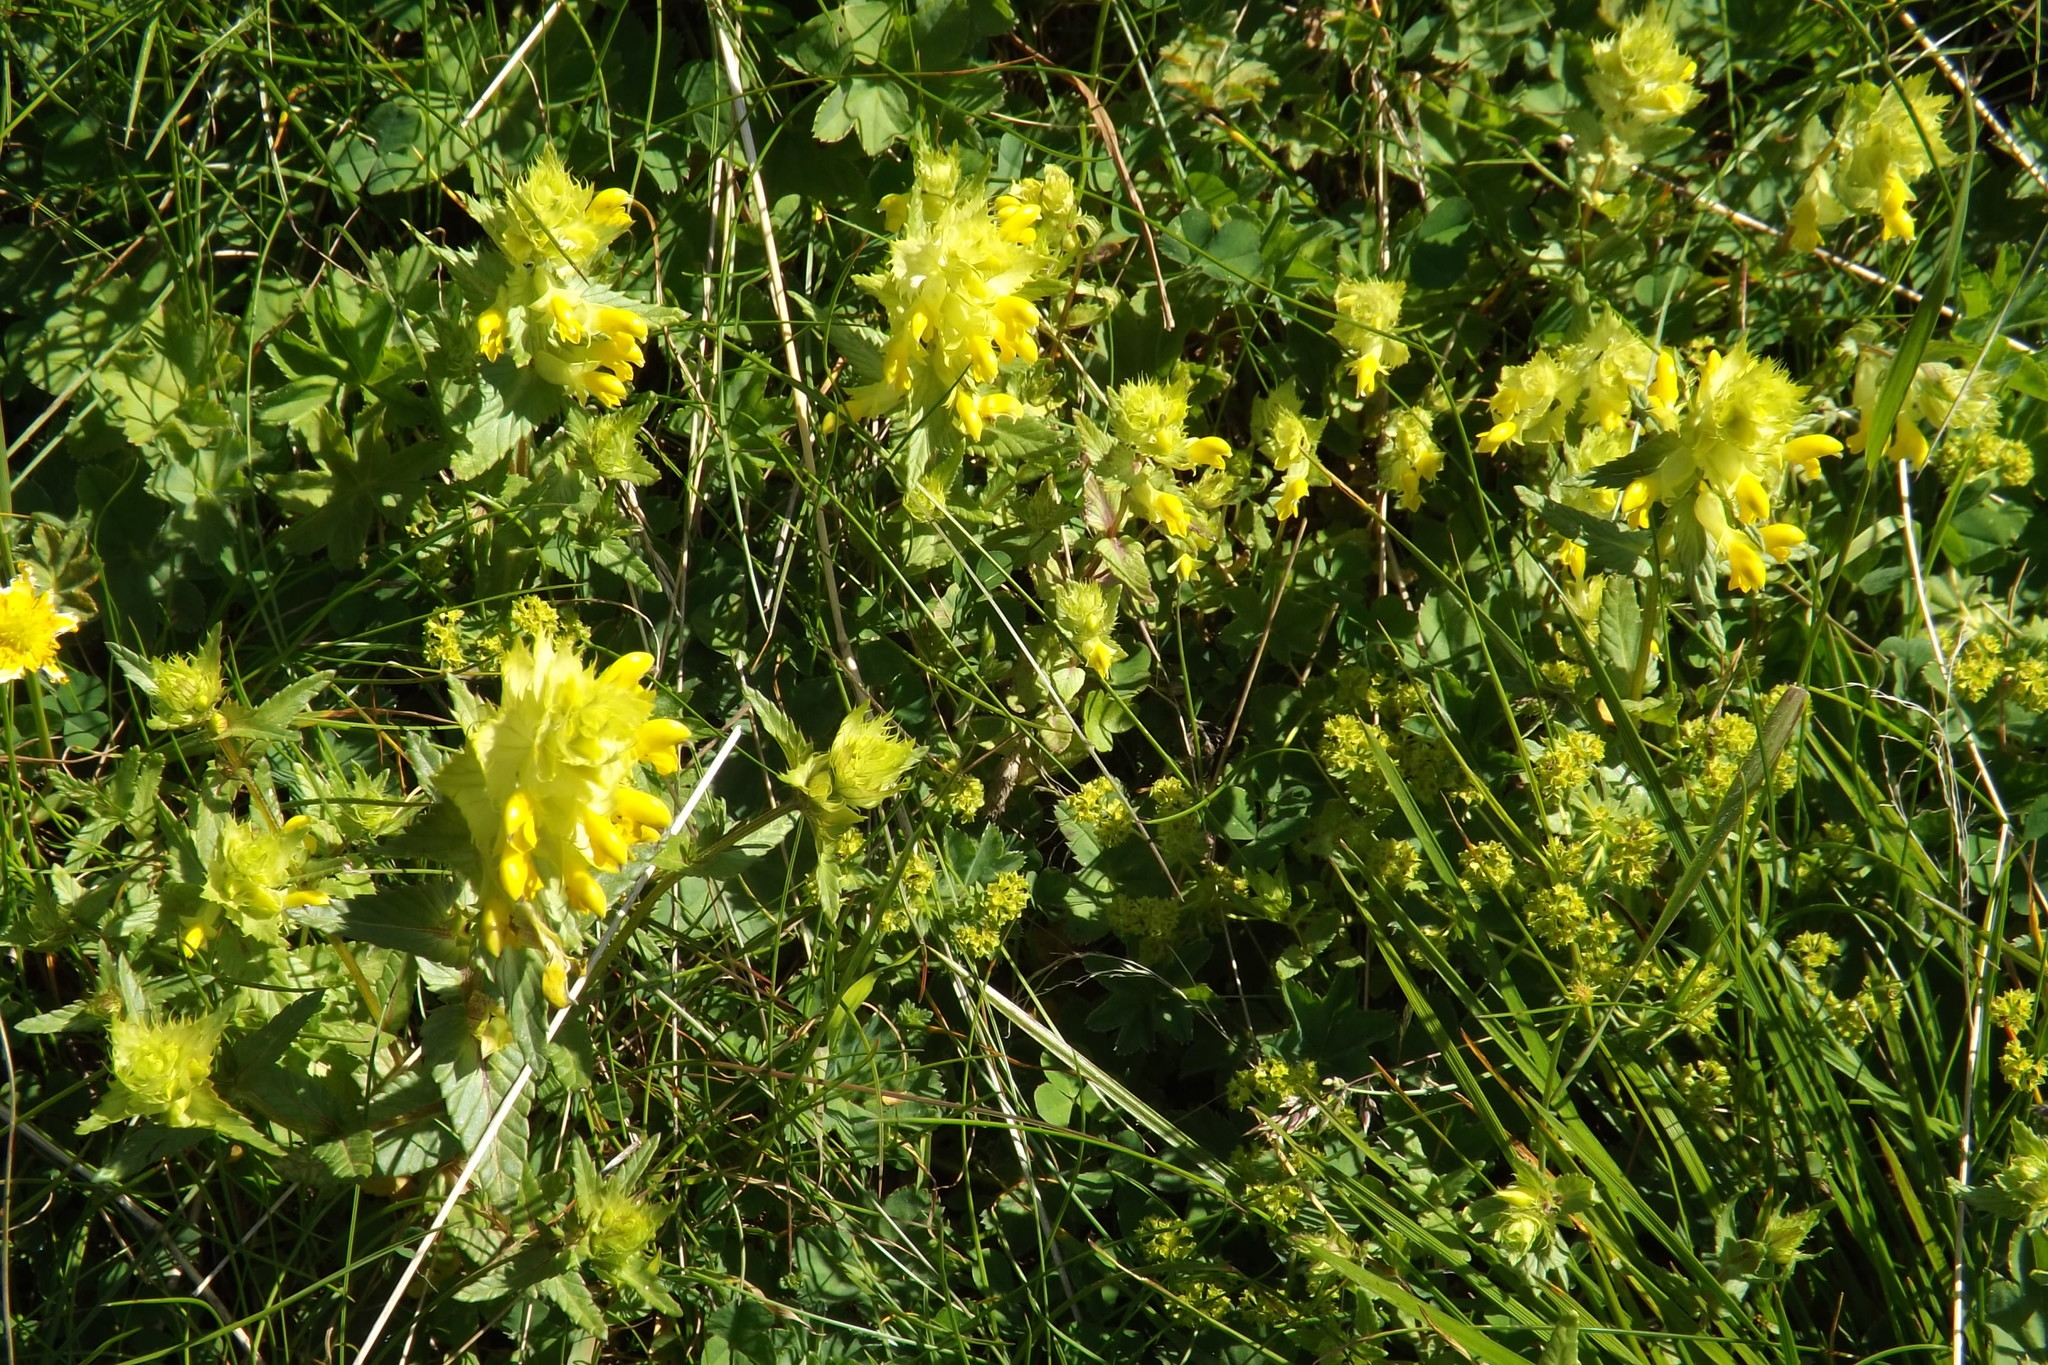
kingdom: Plantae
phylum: Tracheophyta
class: Magnoliopsida
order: Lamiales
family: Orobanchaceae
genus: Rhinanthus
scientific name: Rhinanthus glacialis
